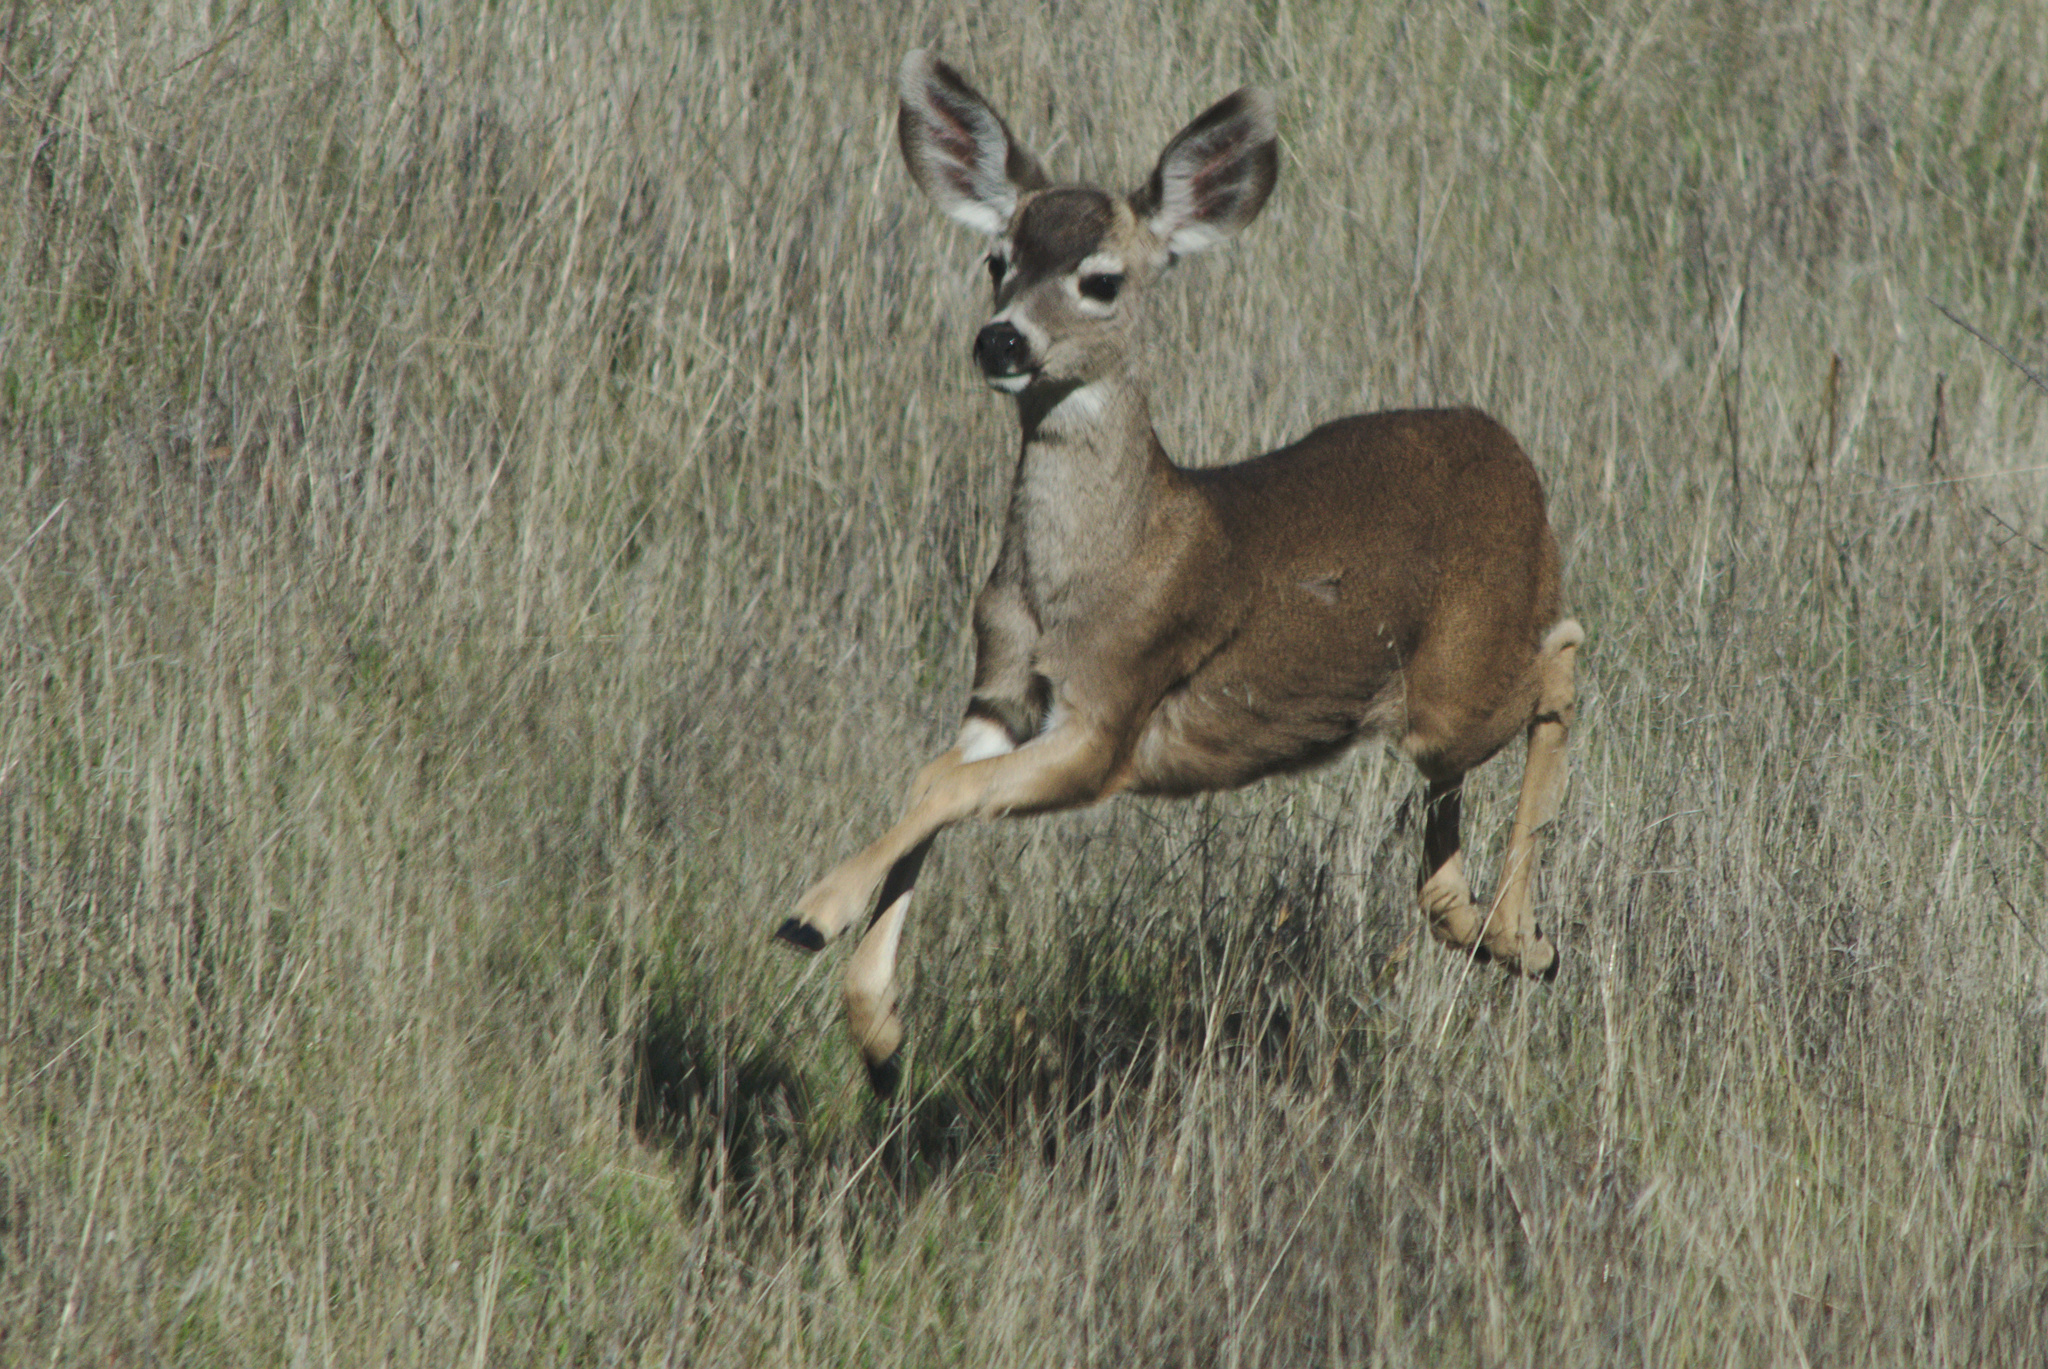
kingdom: Animalia
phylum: Chordata
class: Mammalia
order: Artiodactyla
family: Cervidae
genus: Odocoileus
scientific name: Odocoileus hemionus
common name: Mule deer
